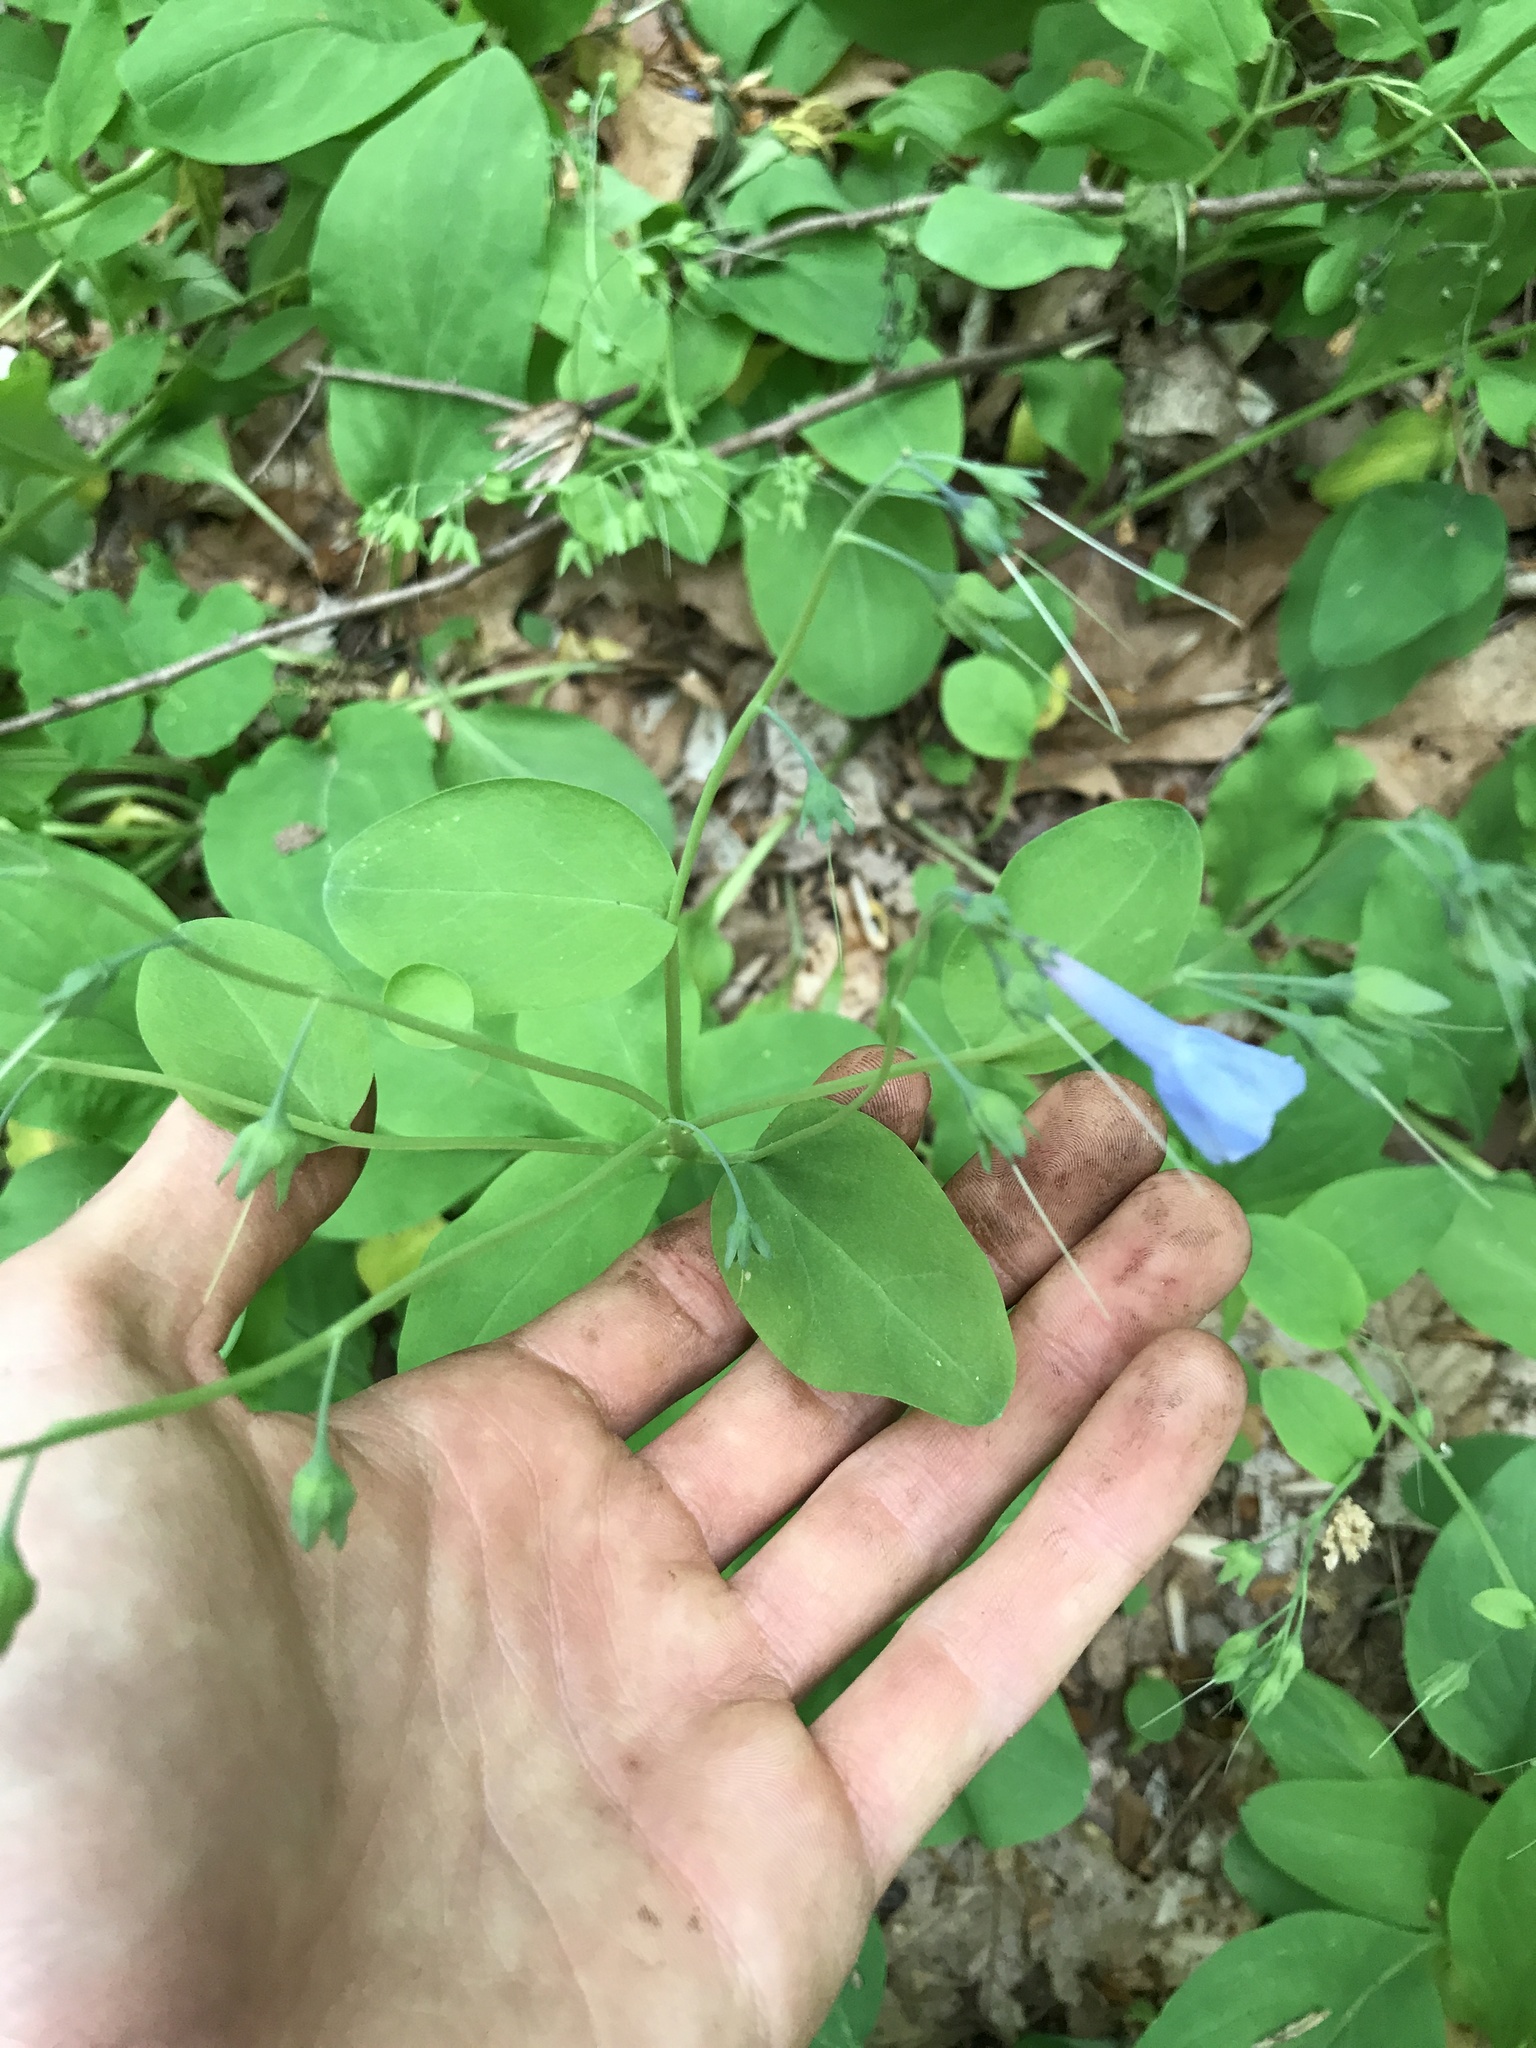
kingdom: Plantae
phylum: Tracheophyta
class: Magnoliopsida
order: Boraginales
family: Boraginaceae
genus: Mertensia
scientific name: Mertensia virginica
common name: Virginia bluebells
